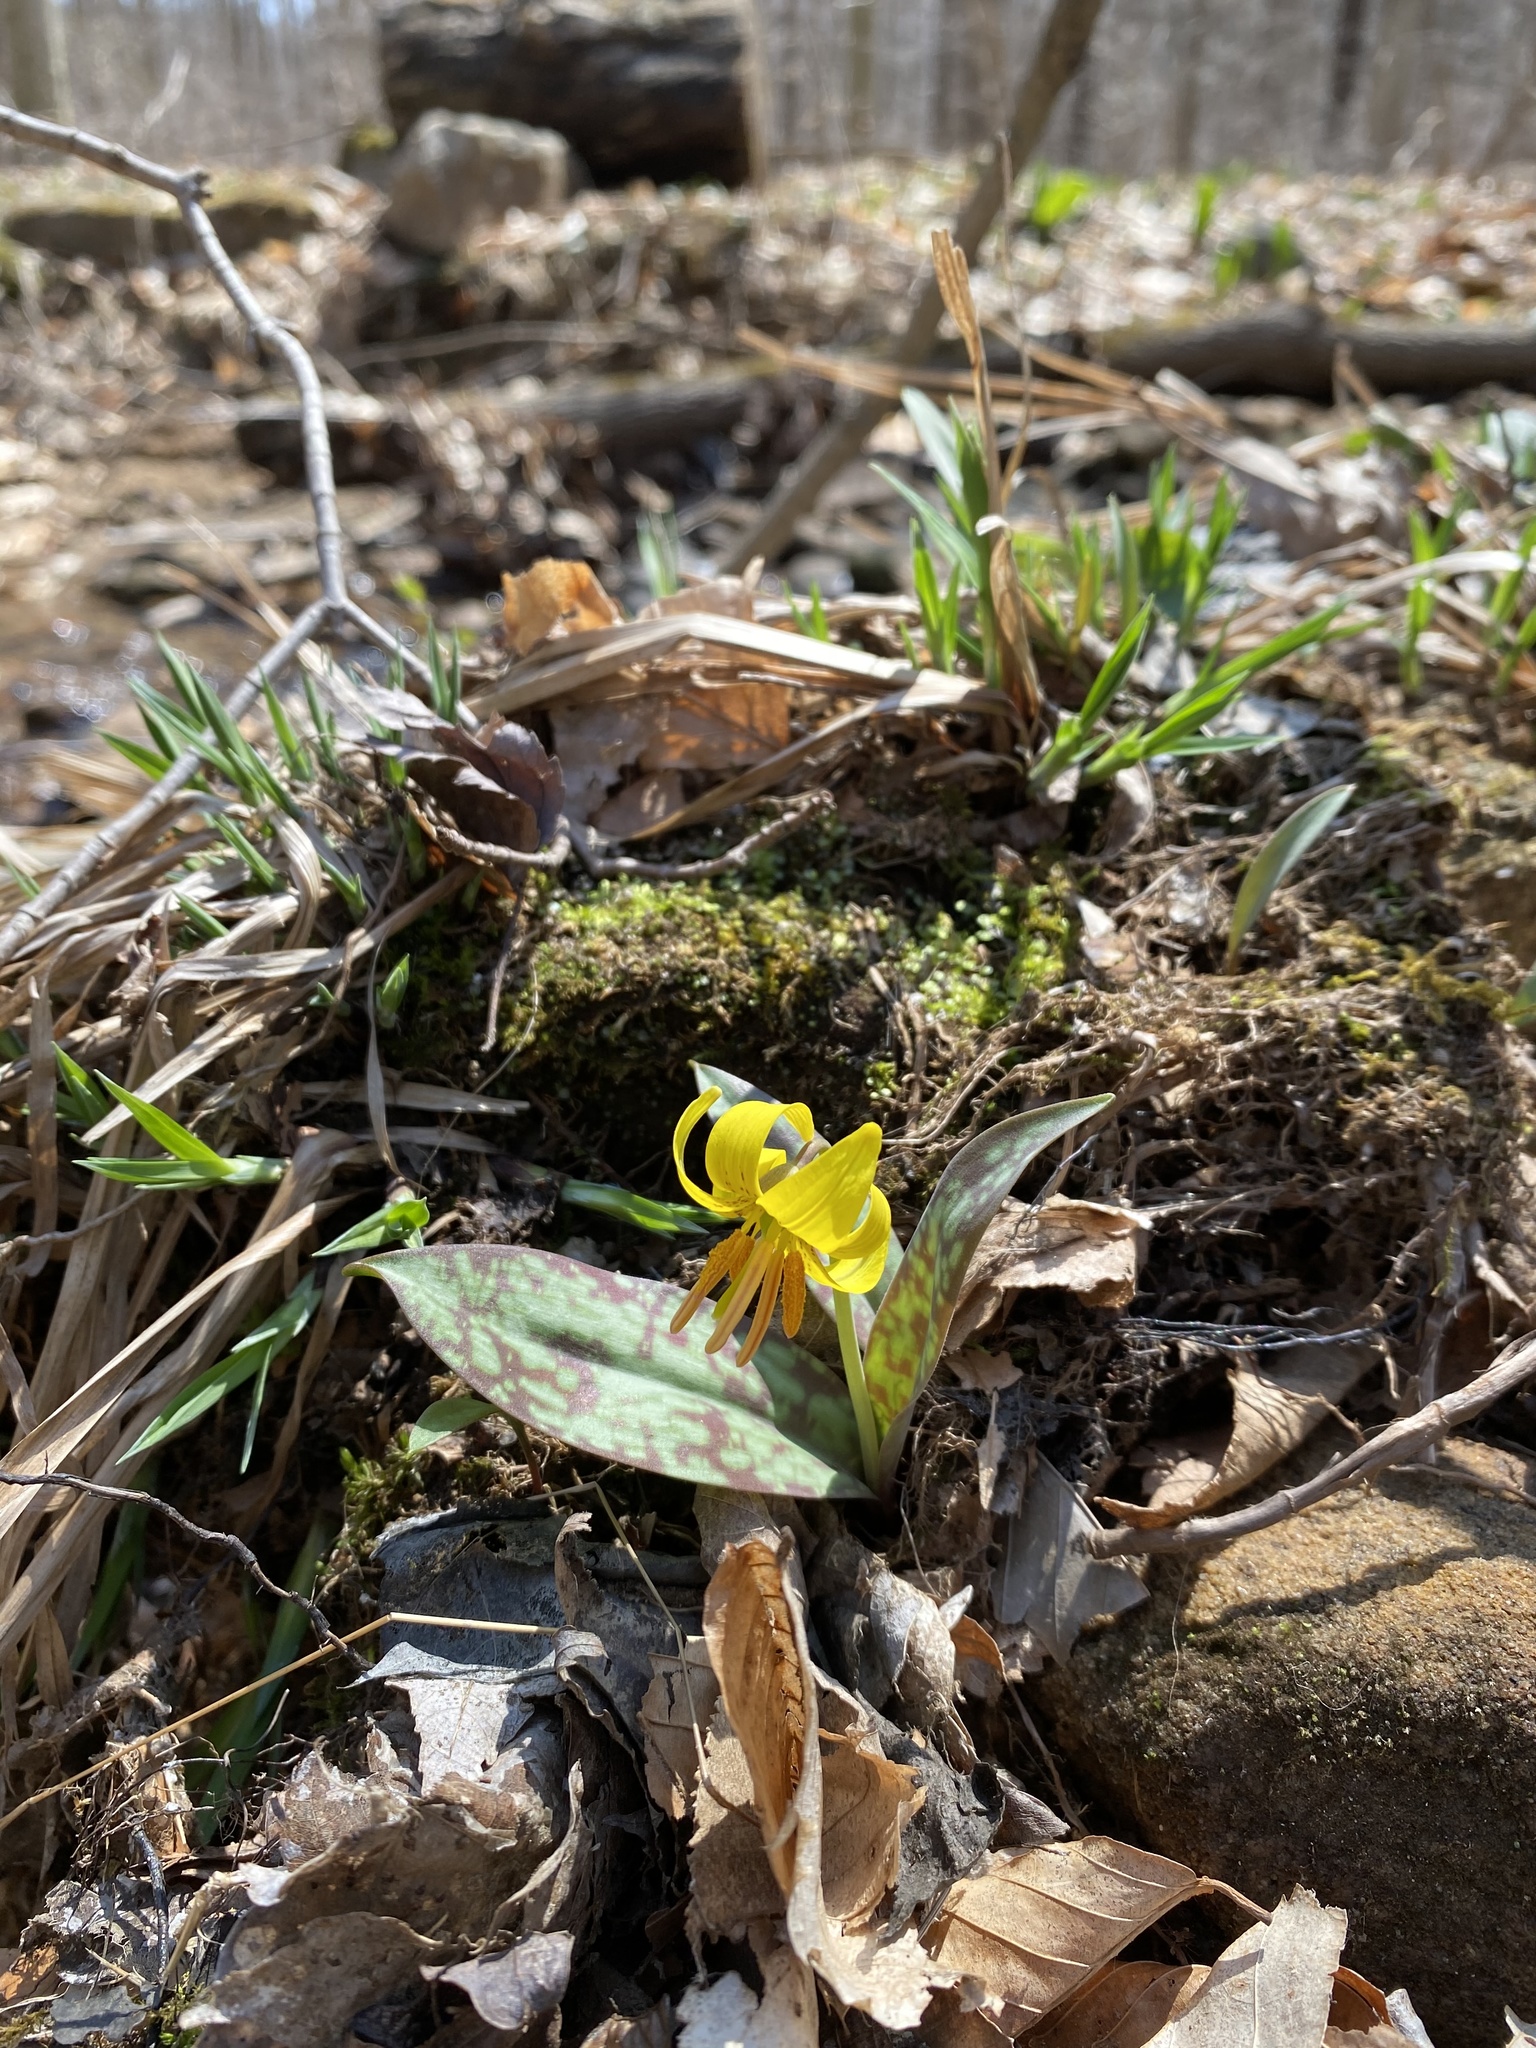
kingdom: Plantae
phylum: Tracheophyta
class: Liliopsida
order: Liliales
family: Liliaceae
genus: Erythronium
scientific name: Erythronium americanum
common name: Yellow adder's-tongue
